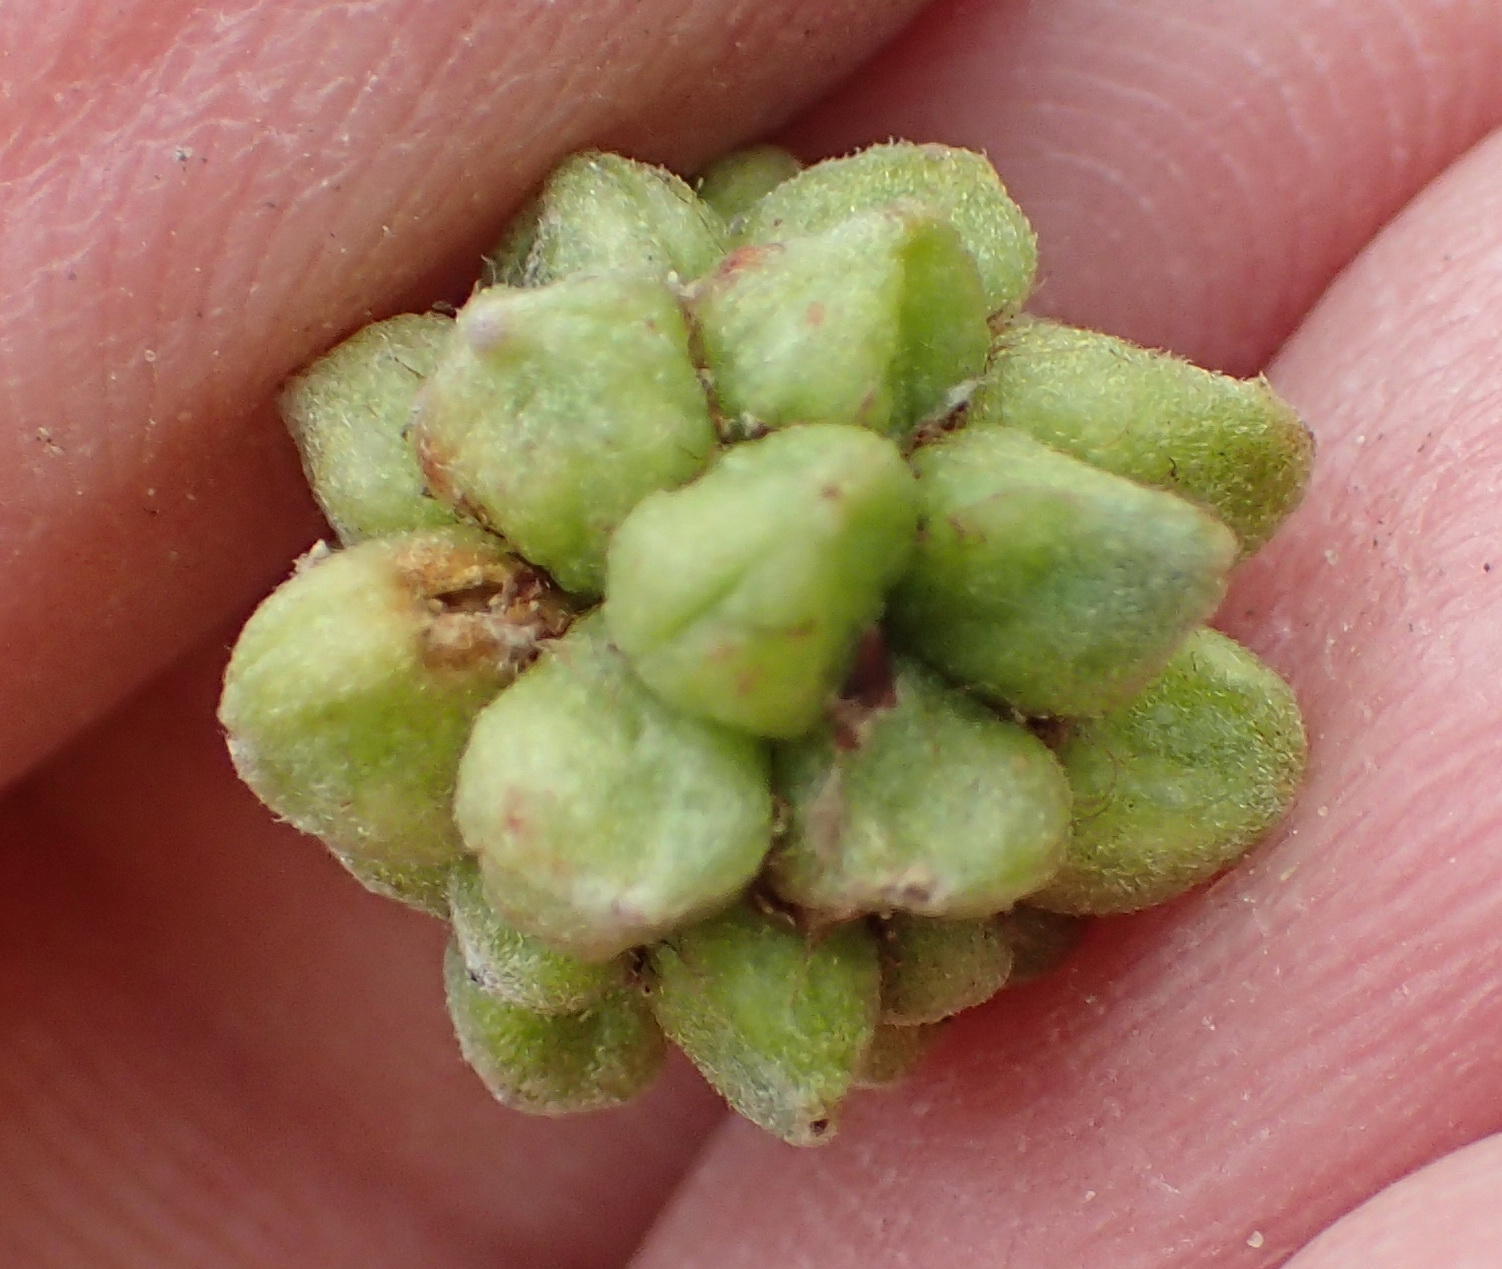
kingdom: Animalia
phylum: Arthropoda
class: Insecta
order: Diptera
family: Cecidomyiidae
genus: Dasineura
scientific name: Dasineura rubiformis
